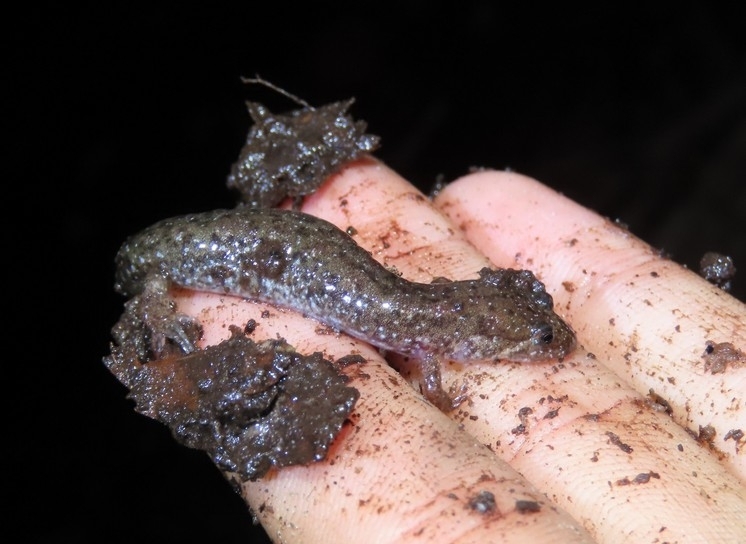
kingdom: Animalia
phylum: Chordata
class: Amphibia
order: Caudata
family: Plethodontidae
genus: Desmognathus
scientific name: Desmognathus fuscus
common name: Northern dusky salamander
